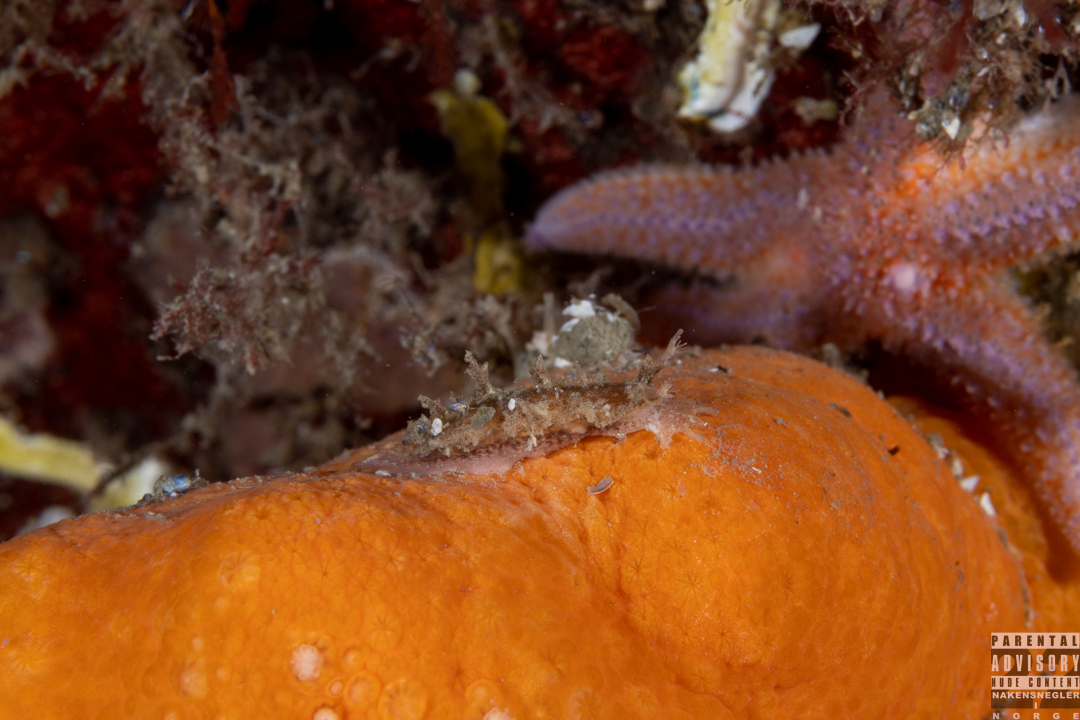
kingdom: Animalia
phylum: Mollusca
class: Gastropoda
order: Nudibranchia
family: Tritoniidae
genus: Duvaucelia
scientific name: Duvaucelia plebeia
